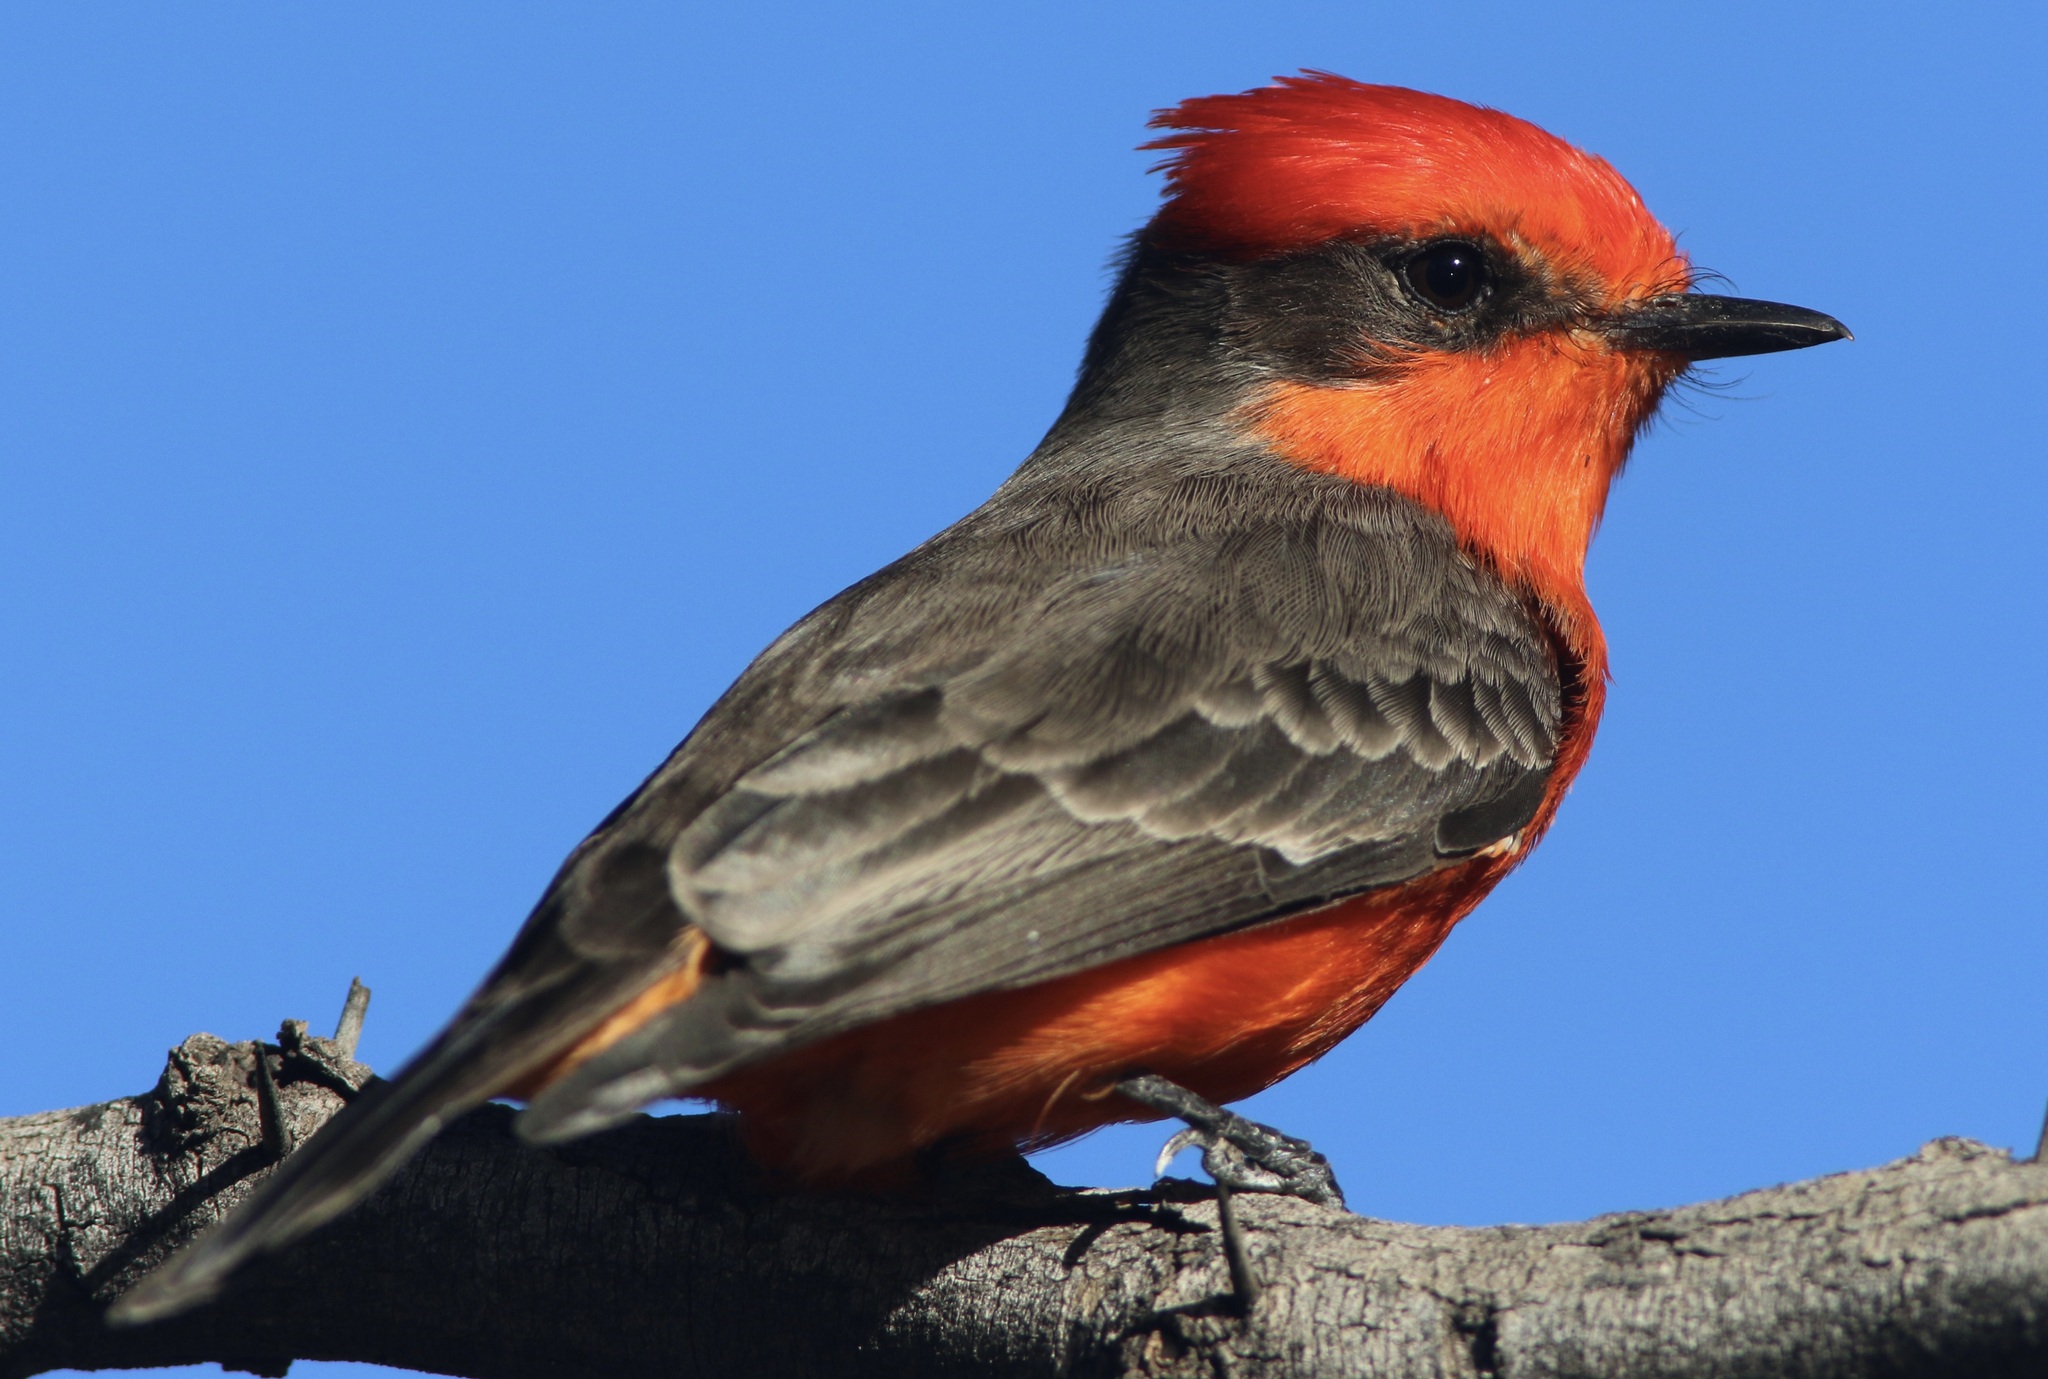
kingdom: Animalia
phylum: Chordata
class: Aves
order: Passeriformes
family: Tyrannidae
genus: Pyrocephalus
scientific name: Pyrocephalus rubinus
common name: Vermilion flycatcher
